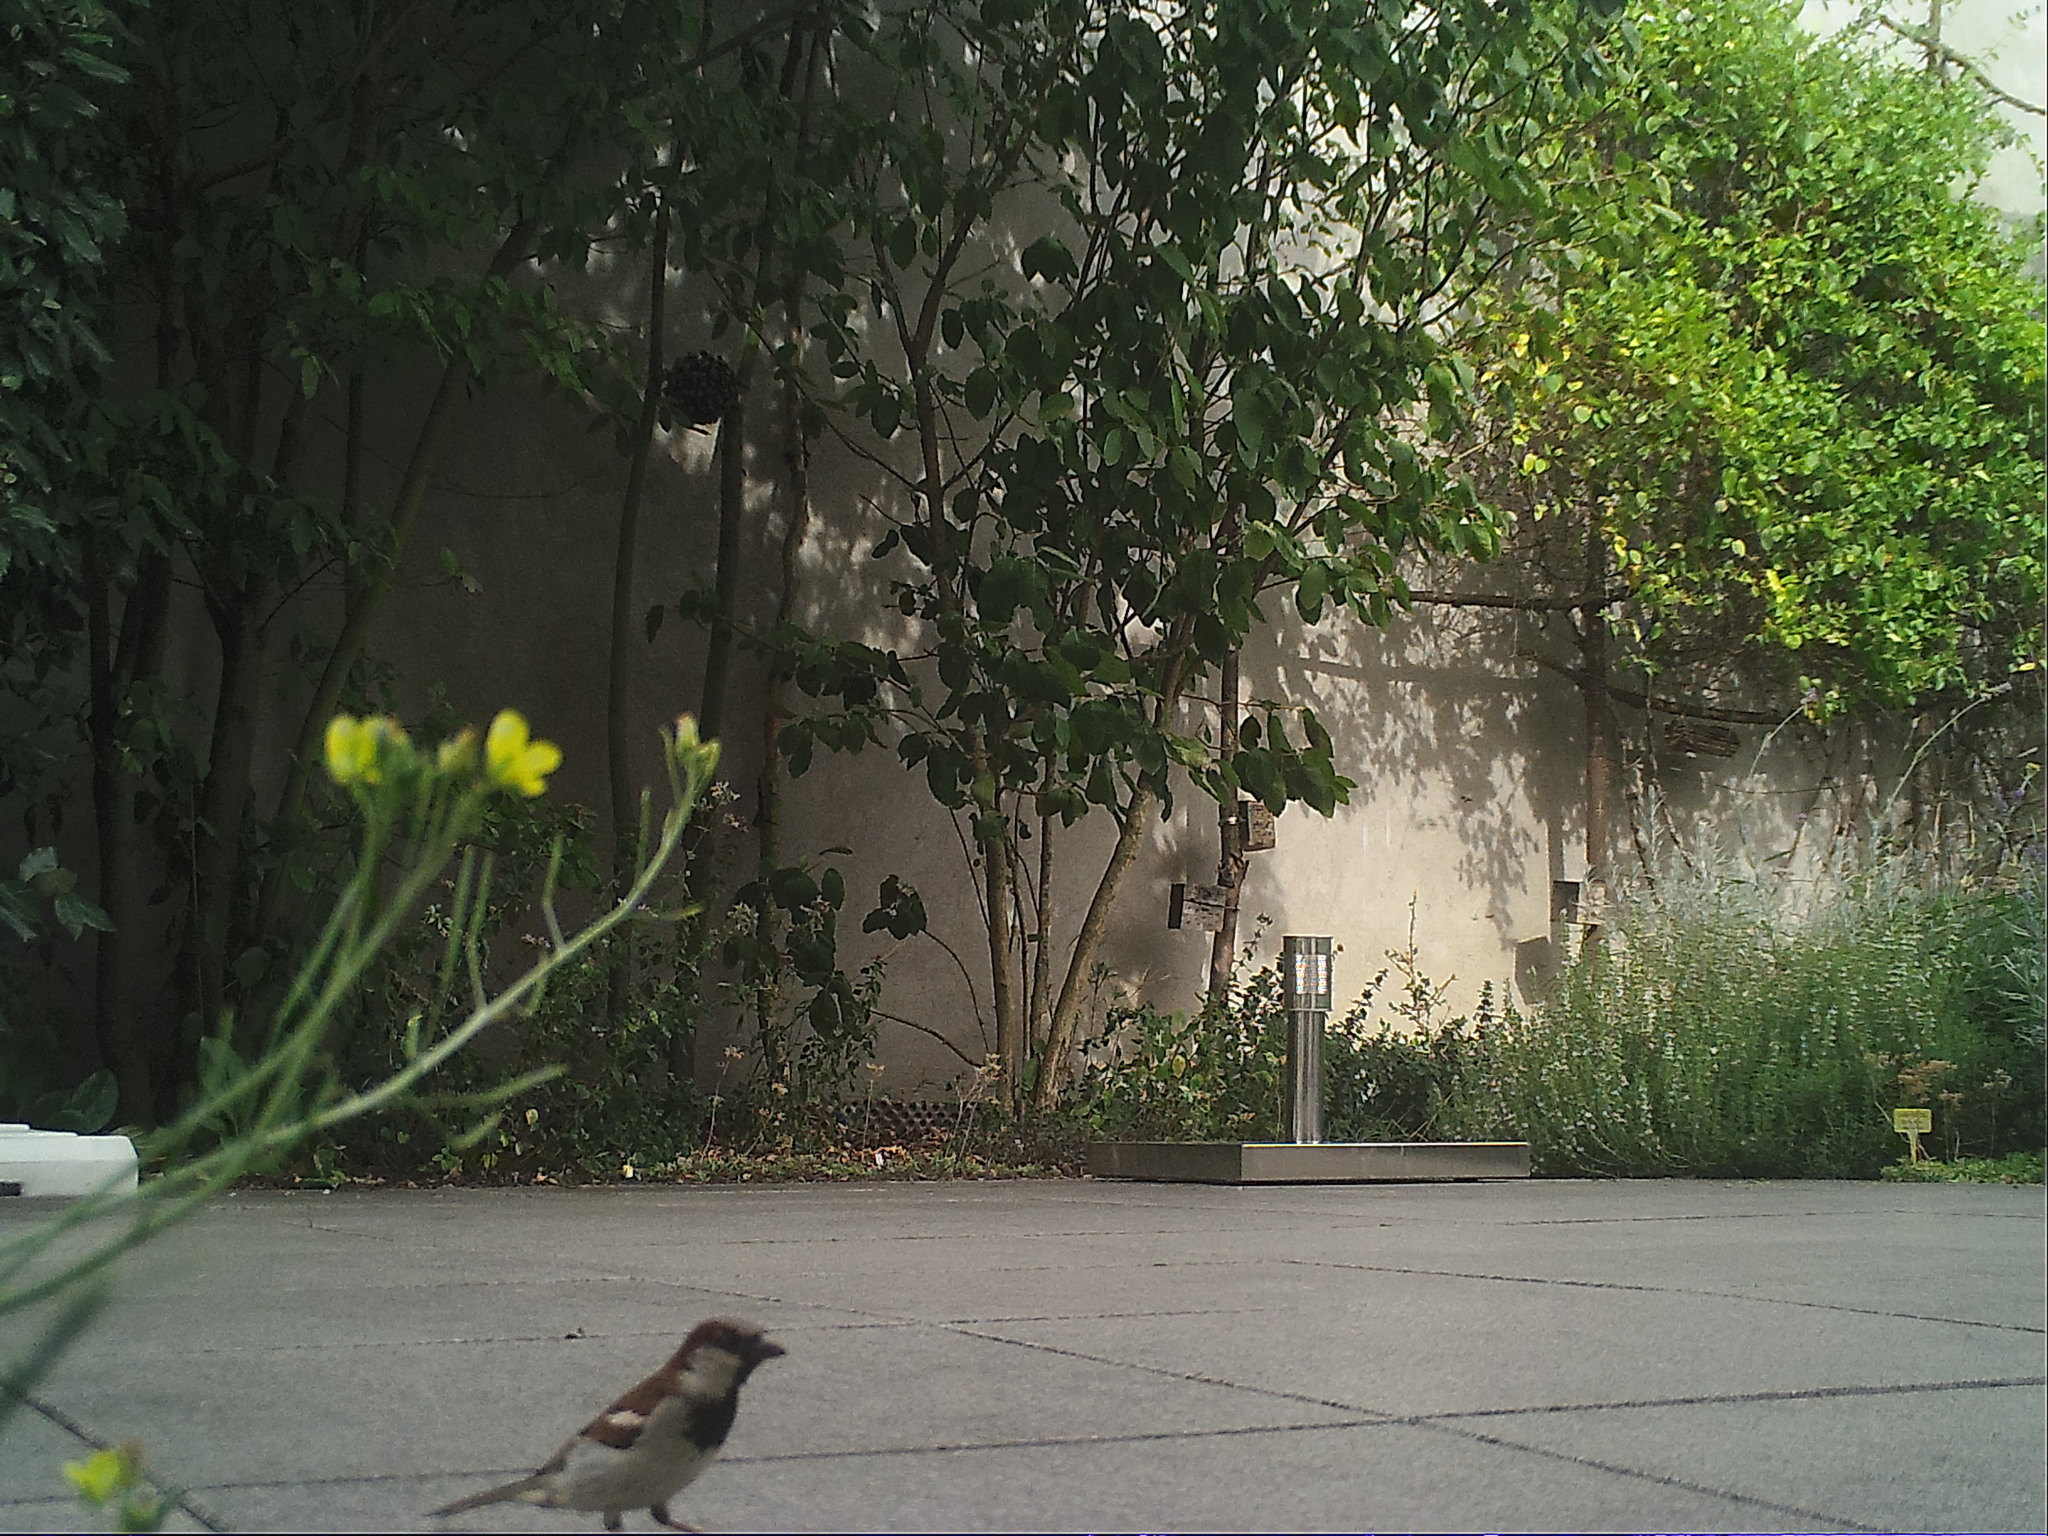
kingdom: Animalia
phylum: Chordata
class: Aves
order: Passeriformes
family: Passeridae
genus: Passer
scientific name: Passer domesticus
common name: House sparrow
